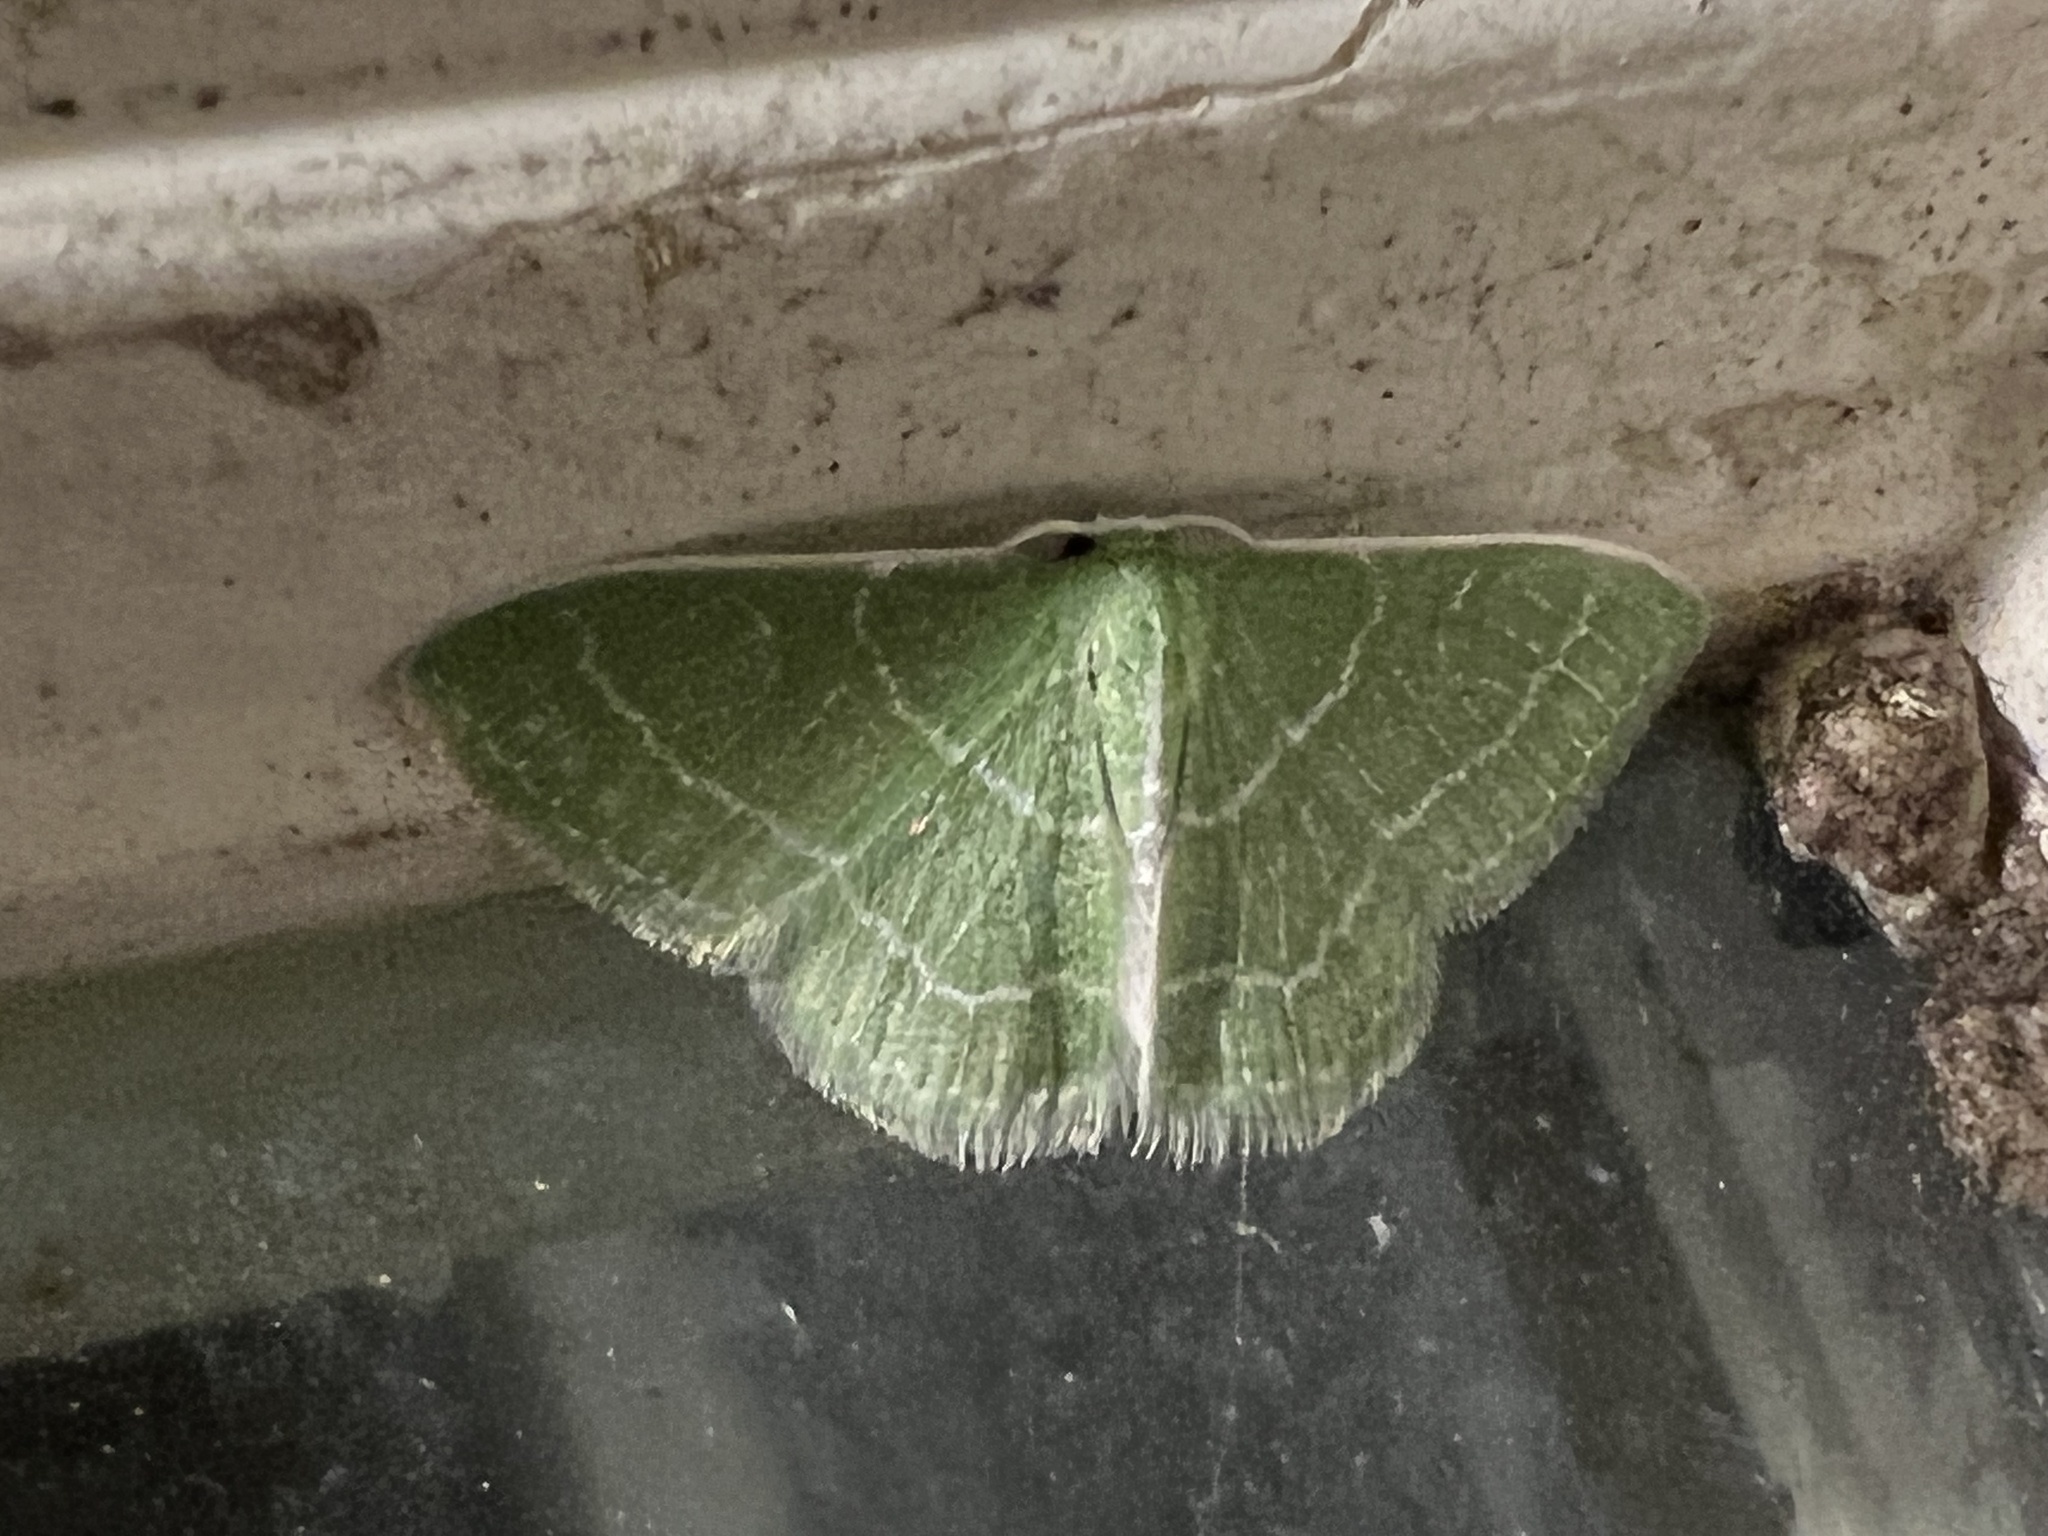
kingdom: Animalia
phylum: Arthropoda
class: Insecta
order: Lepidoptera
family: Geometridae
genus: Synchlora
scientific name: Synchlora aerata
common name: Wavy-lined emerald
